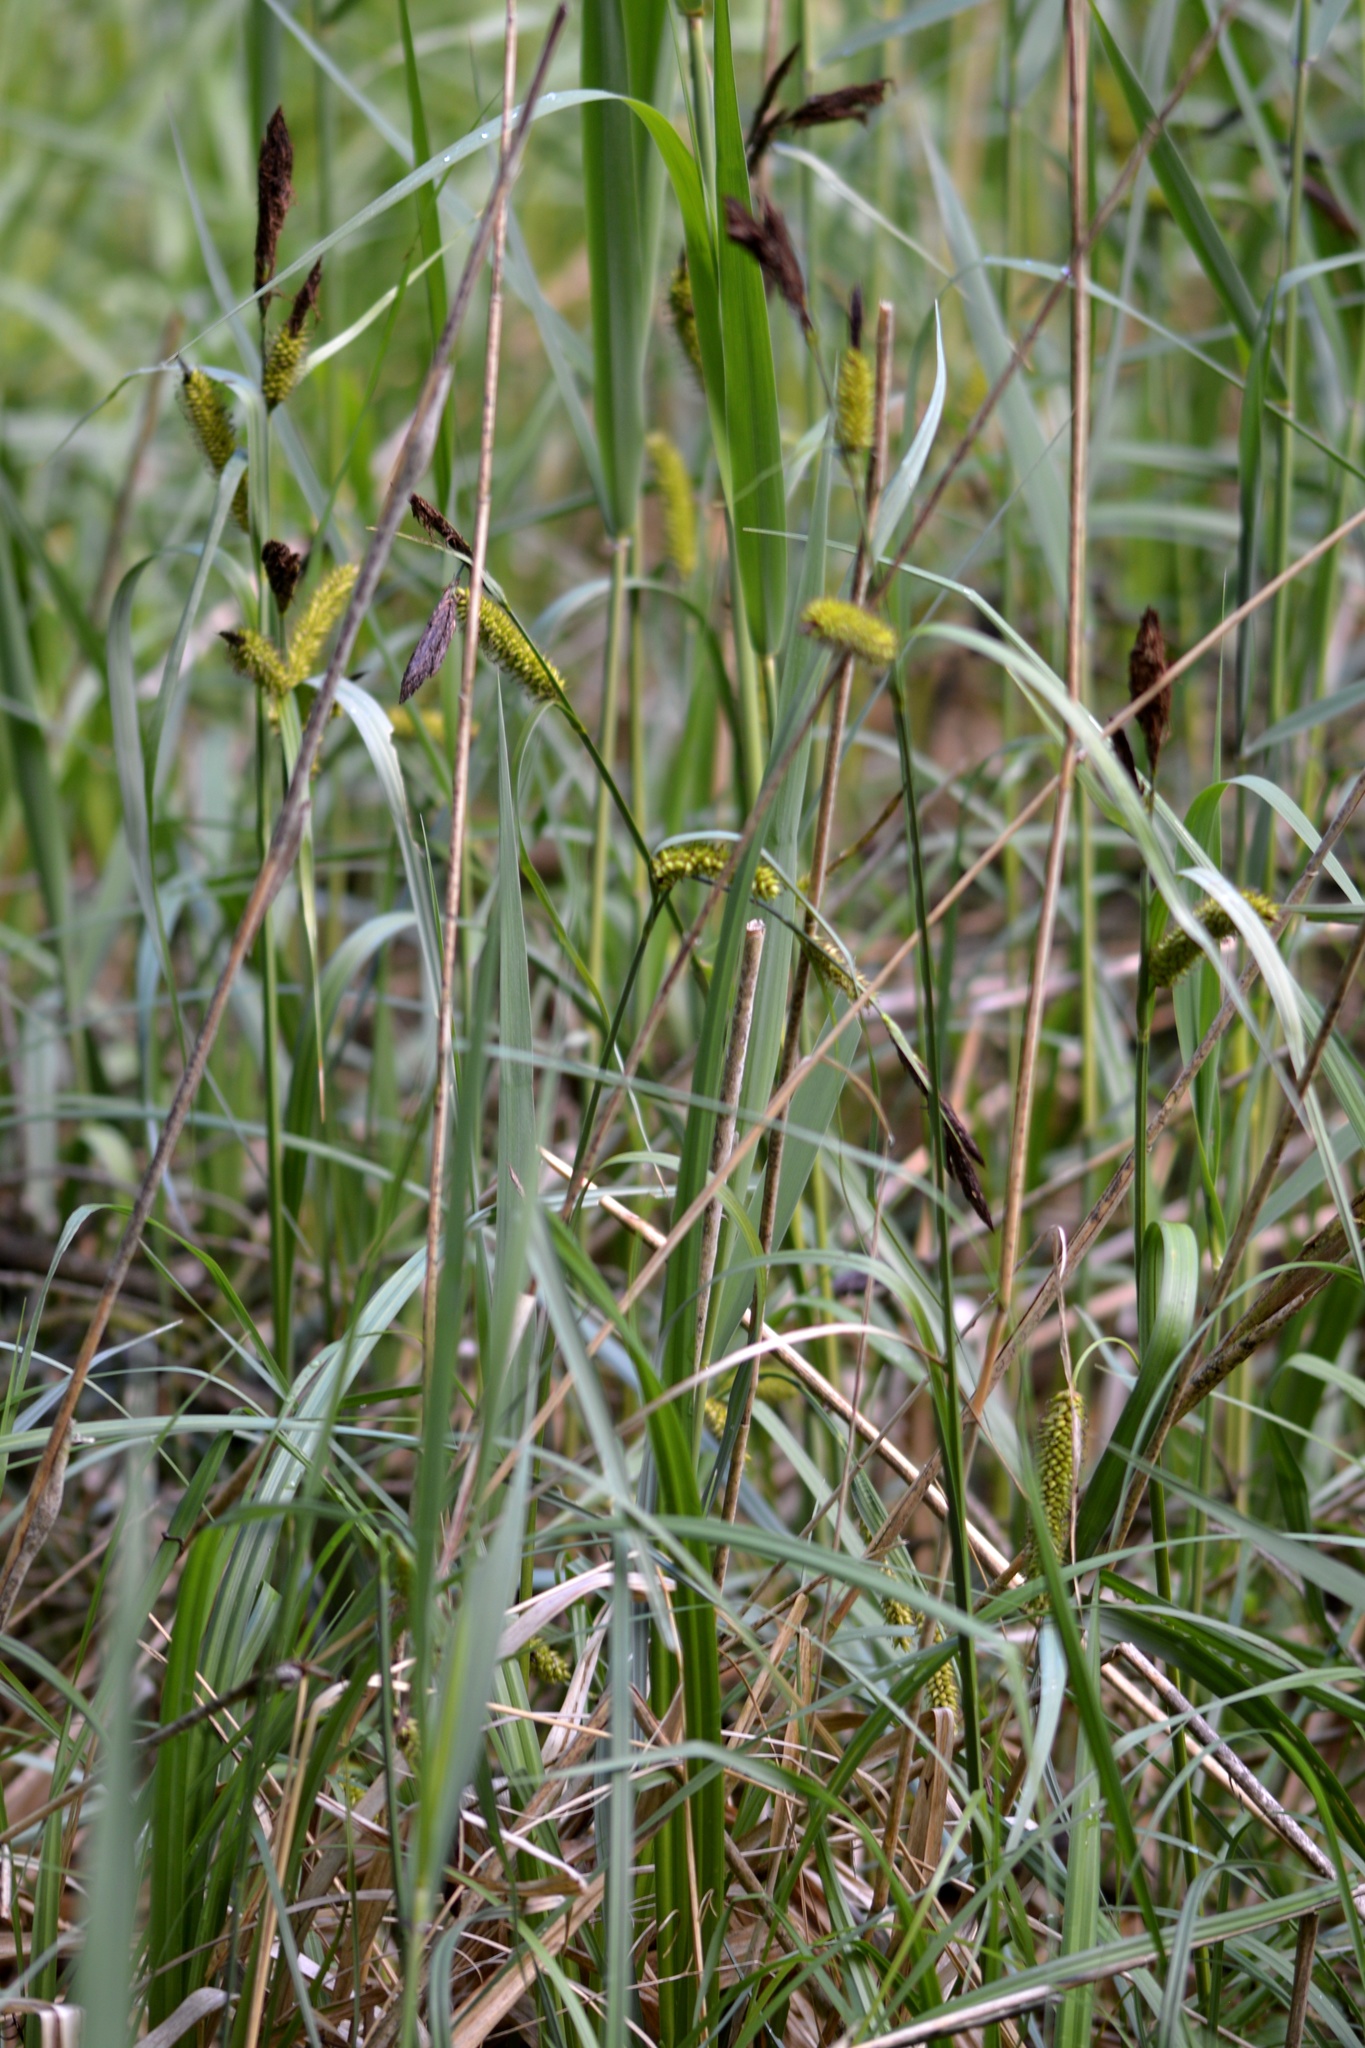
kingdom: Plantae
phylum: Tracheophyta
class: Liliopsida
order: Poales
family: Cyperaceae
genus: Carex
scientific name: Carex riparia
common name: Greater pond-sedge
